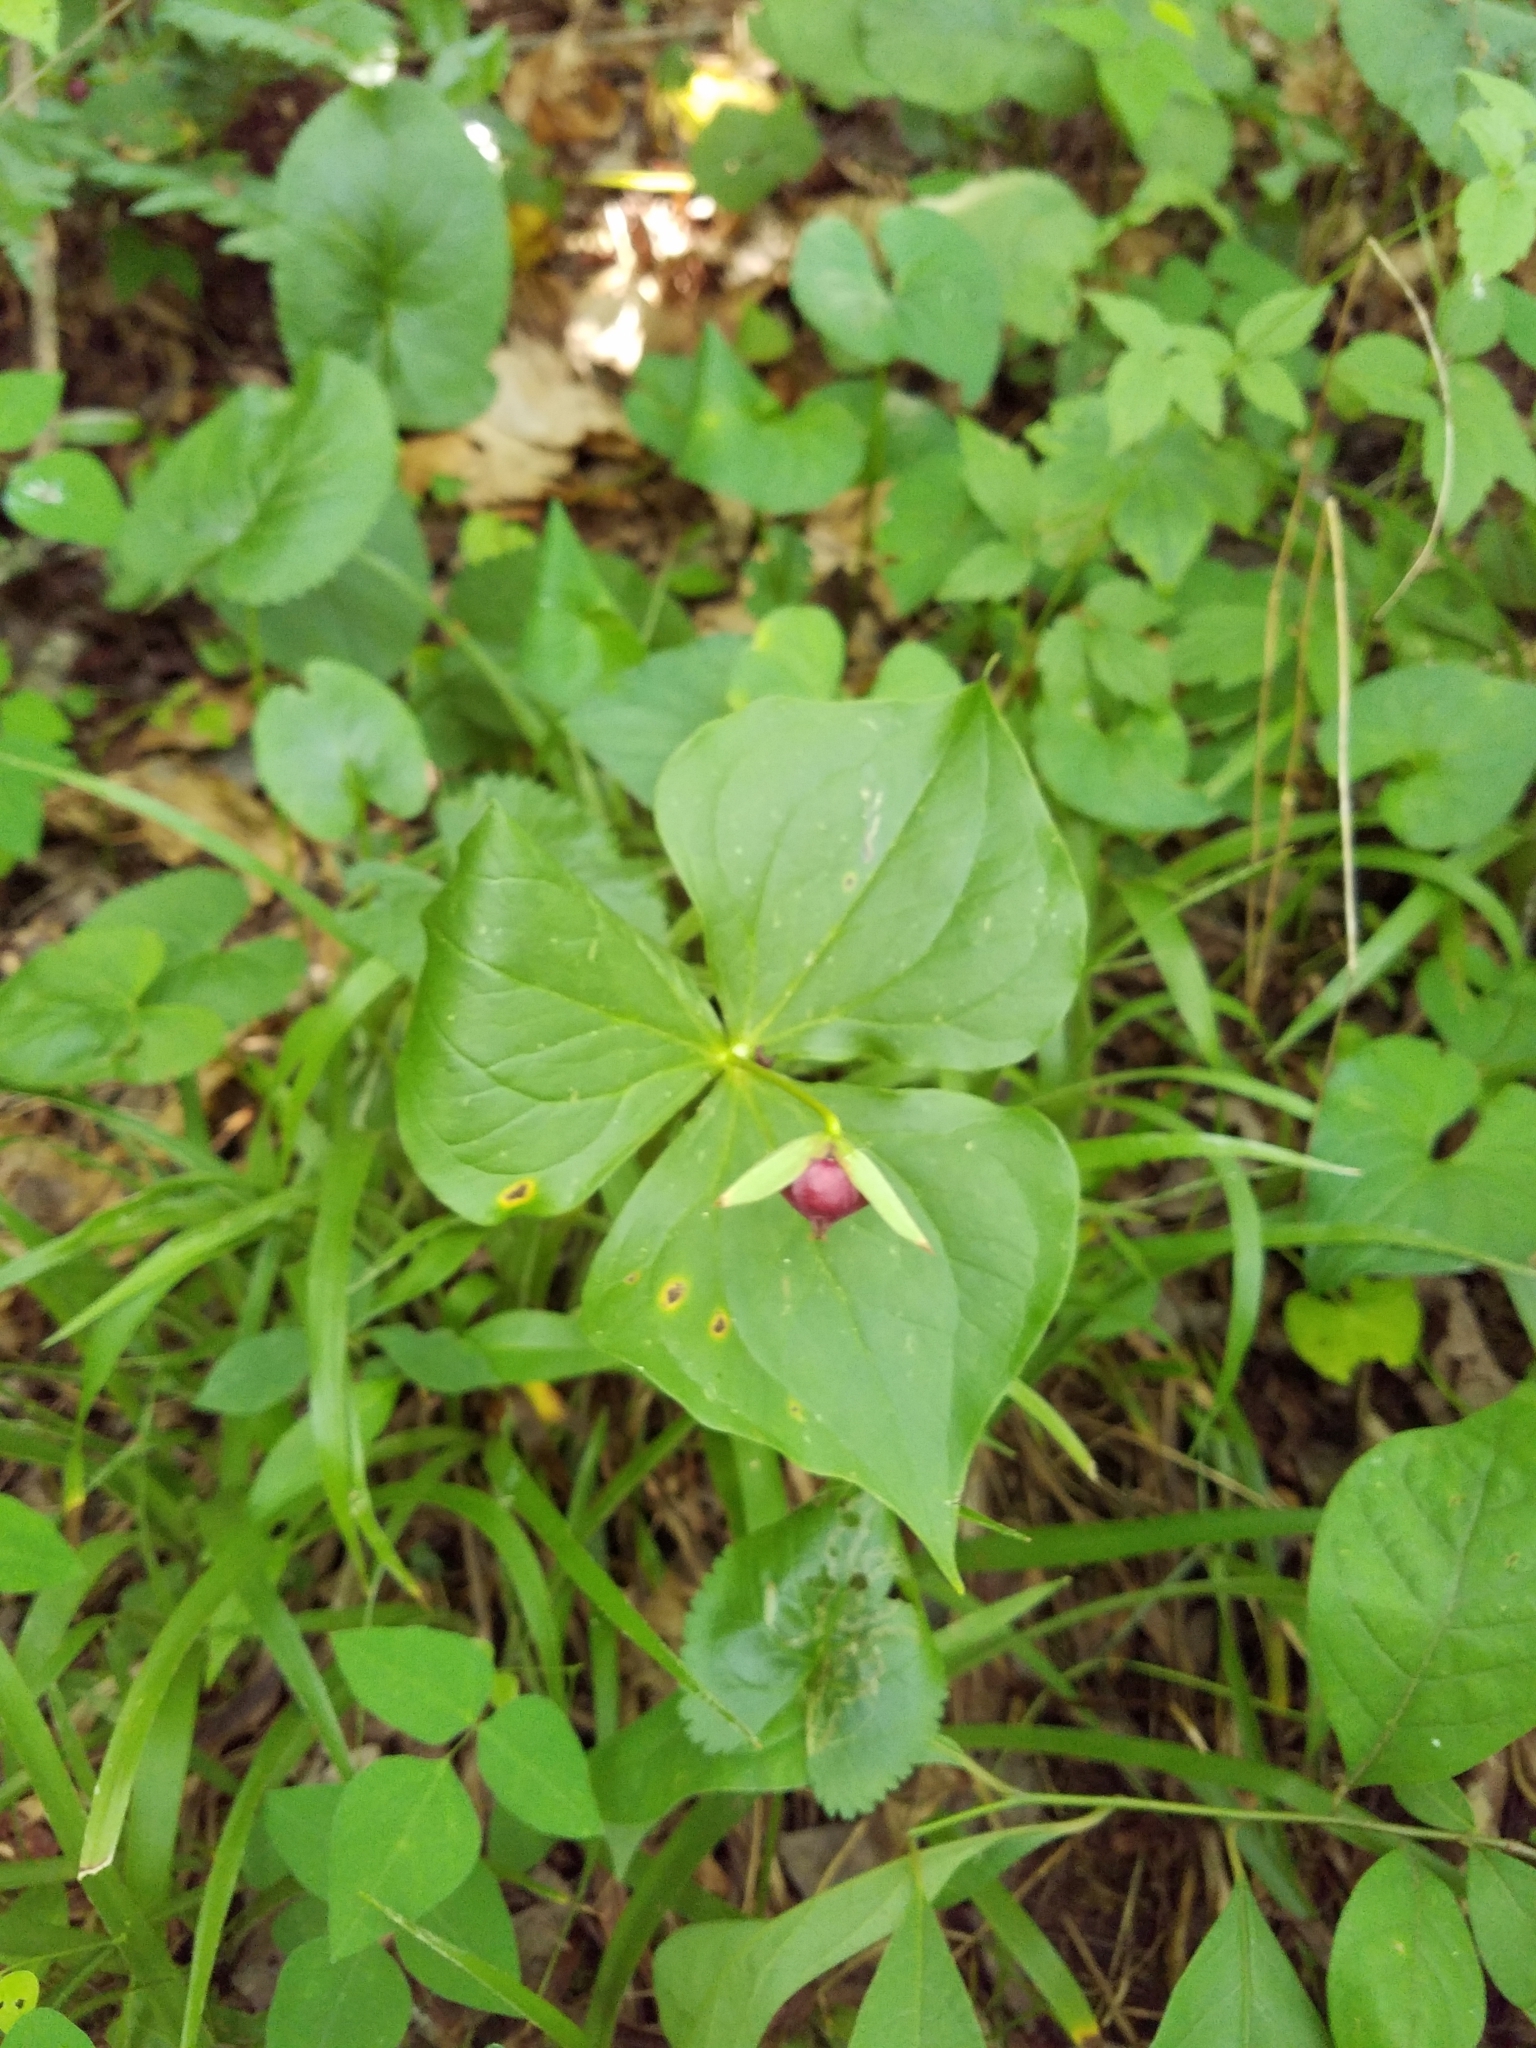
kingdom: Plantae
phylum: Tracheophyta
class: Liliopsida
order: Liliales
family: Melanthiaceae
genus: Trillium
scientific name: Trillium sulcatum
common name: Barksdale trillium
